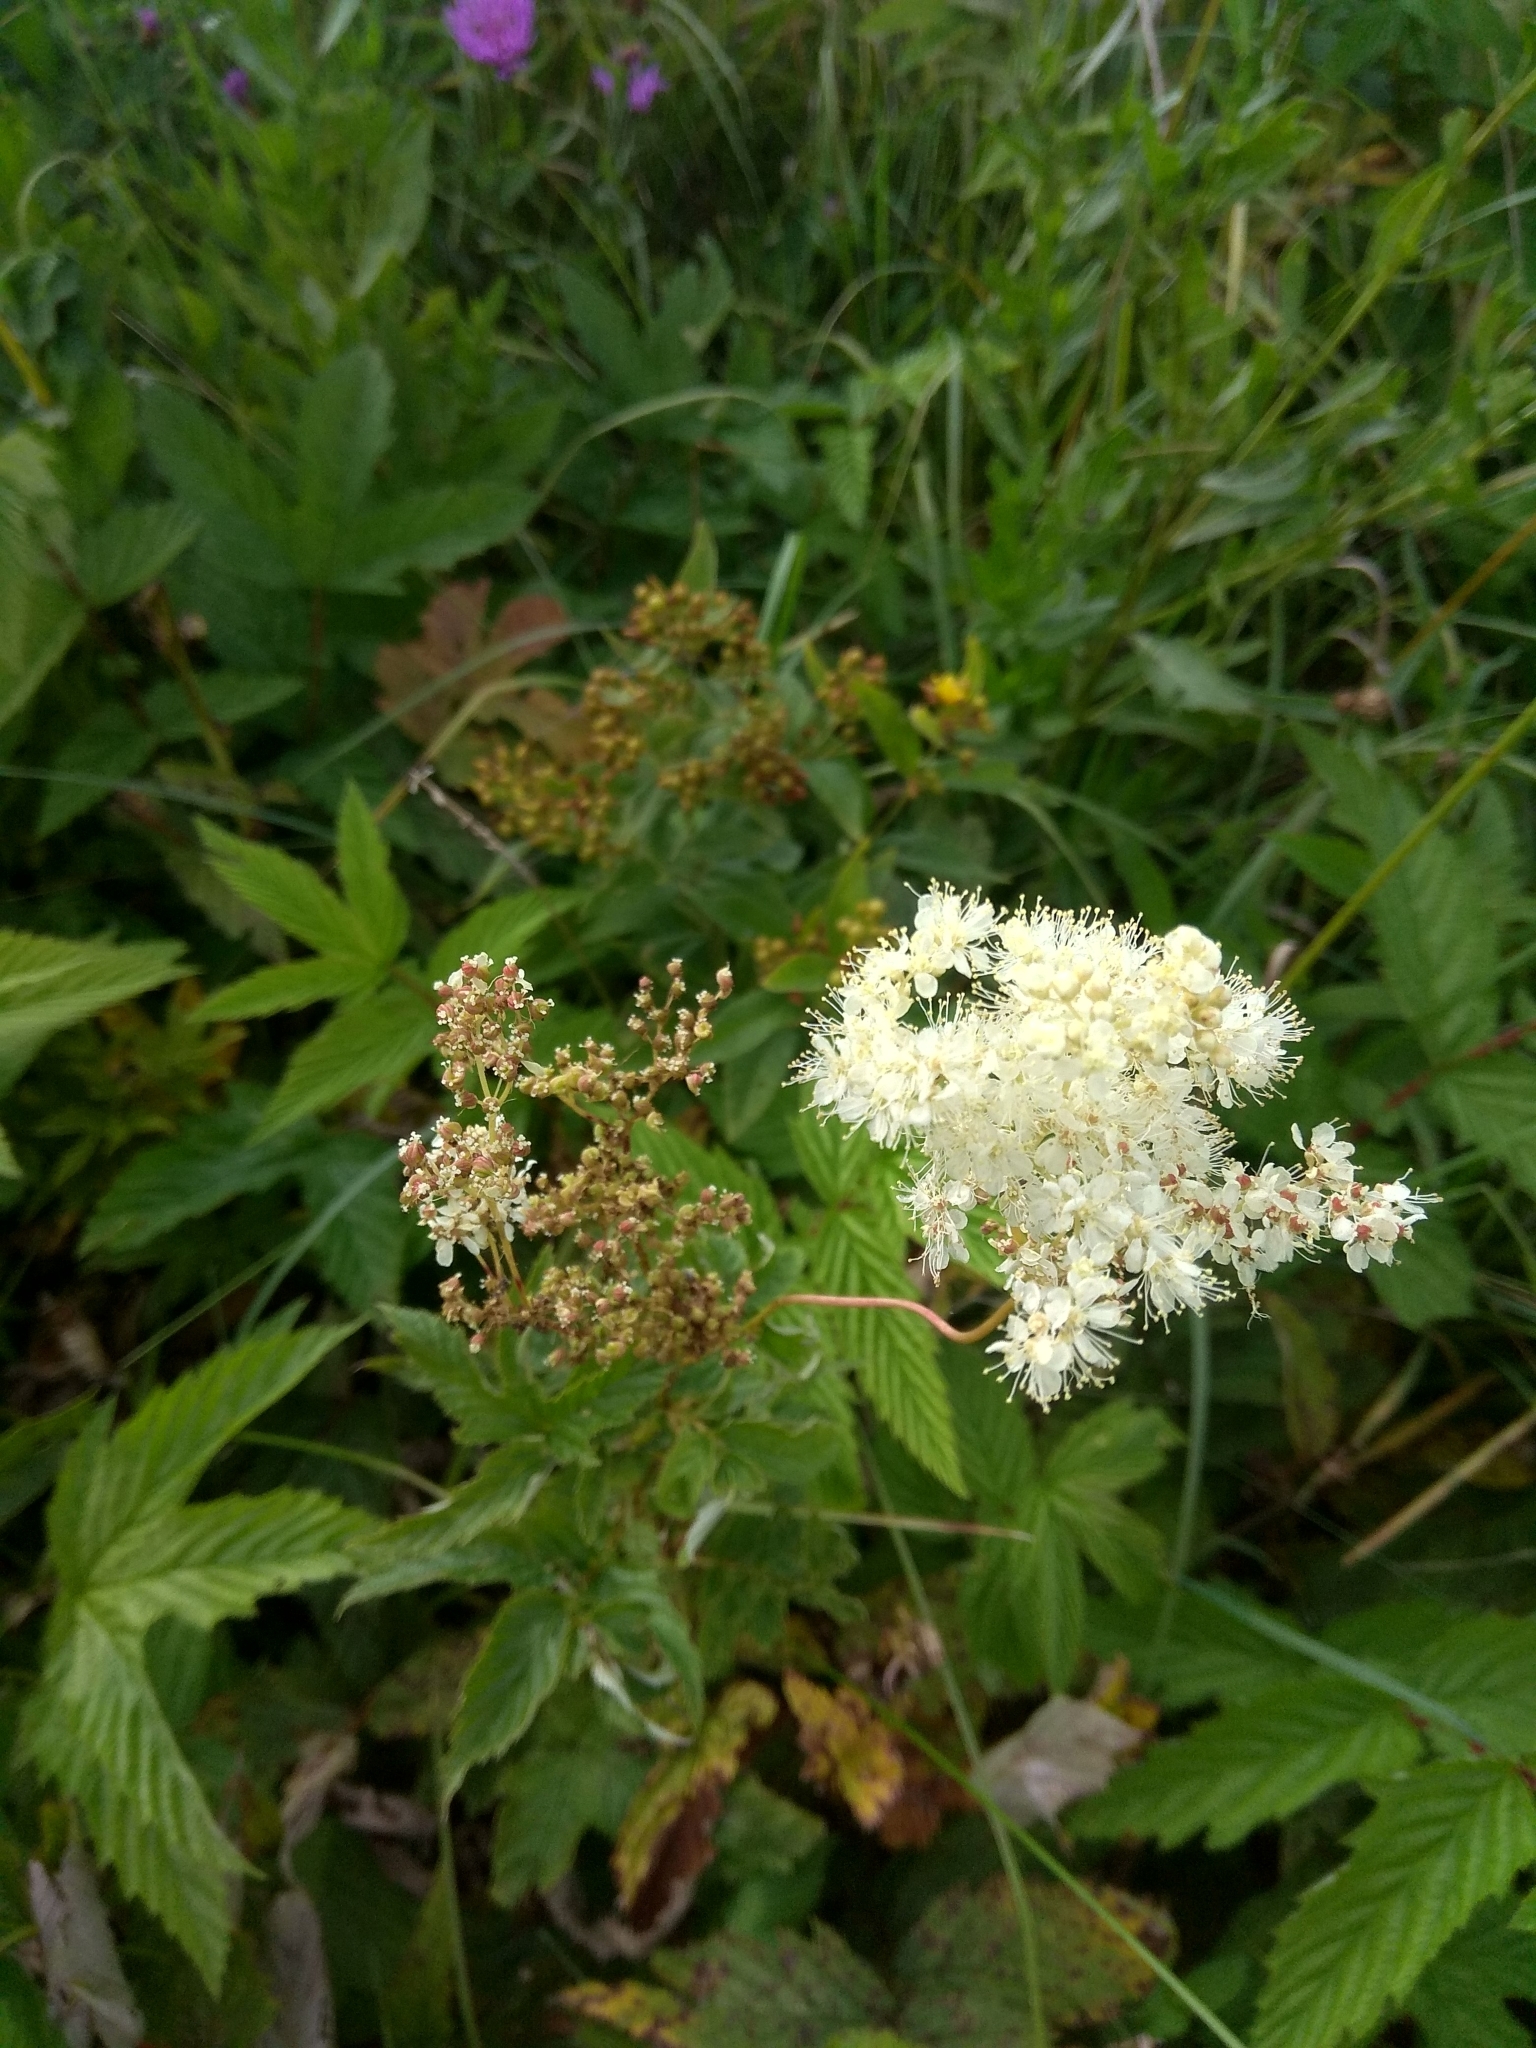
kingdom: Plantae
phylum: Tracheophyta
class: Magnoliopsida
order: Rosales
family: Rosaceae
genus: Filipendula
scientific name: Filipendula ulmaria
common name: Meadowsweet
